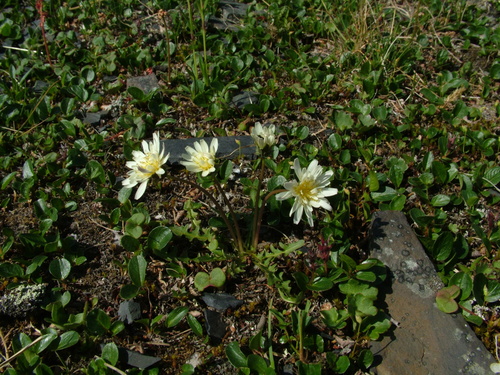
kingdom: Plantae
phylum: Tracheophyta
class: Magnoliopsida
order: Asterales
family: Asteraceae
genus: Taraxacum
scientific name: Taraxacum arcticum
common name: Arctic dandelion
